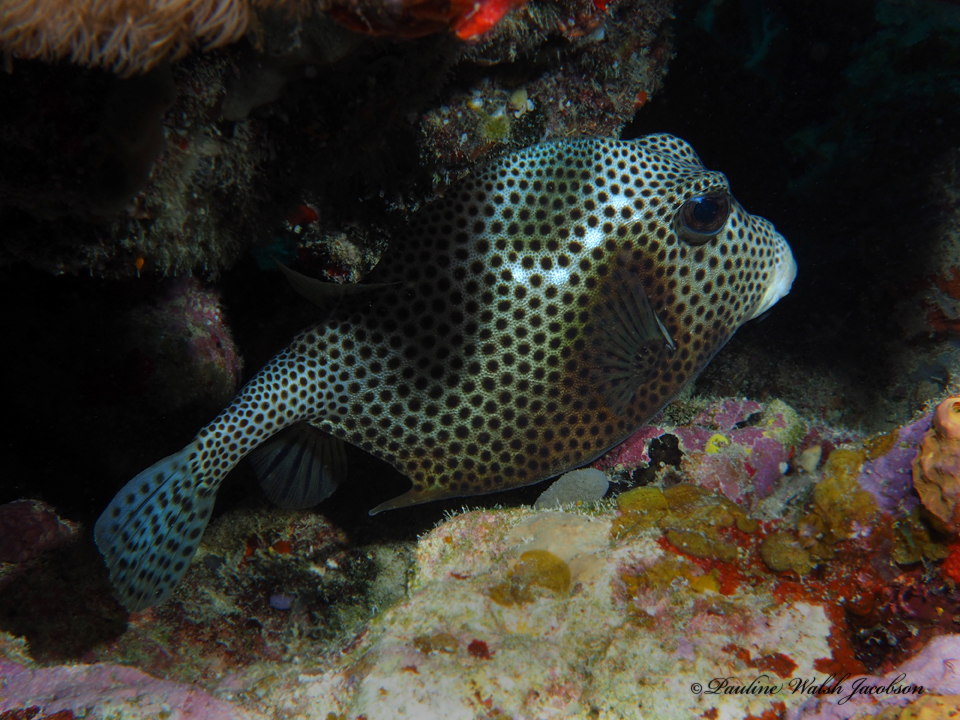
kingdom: Animalia
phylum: Chordata
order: Tetraodontiformes
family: Ostraciidae
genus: Lactophrys
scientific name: Lactophrys bicaudalis
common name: Spotted trunkfish
